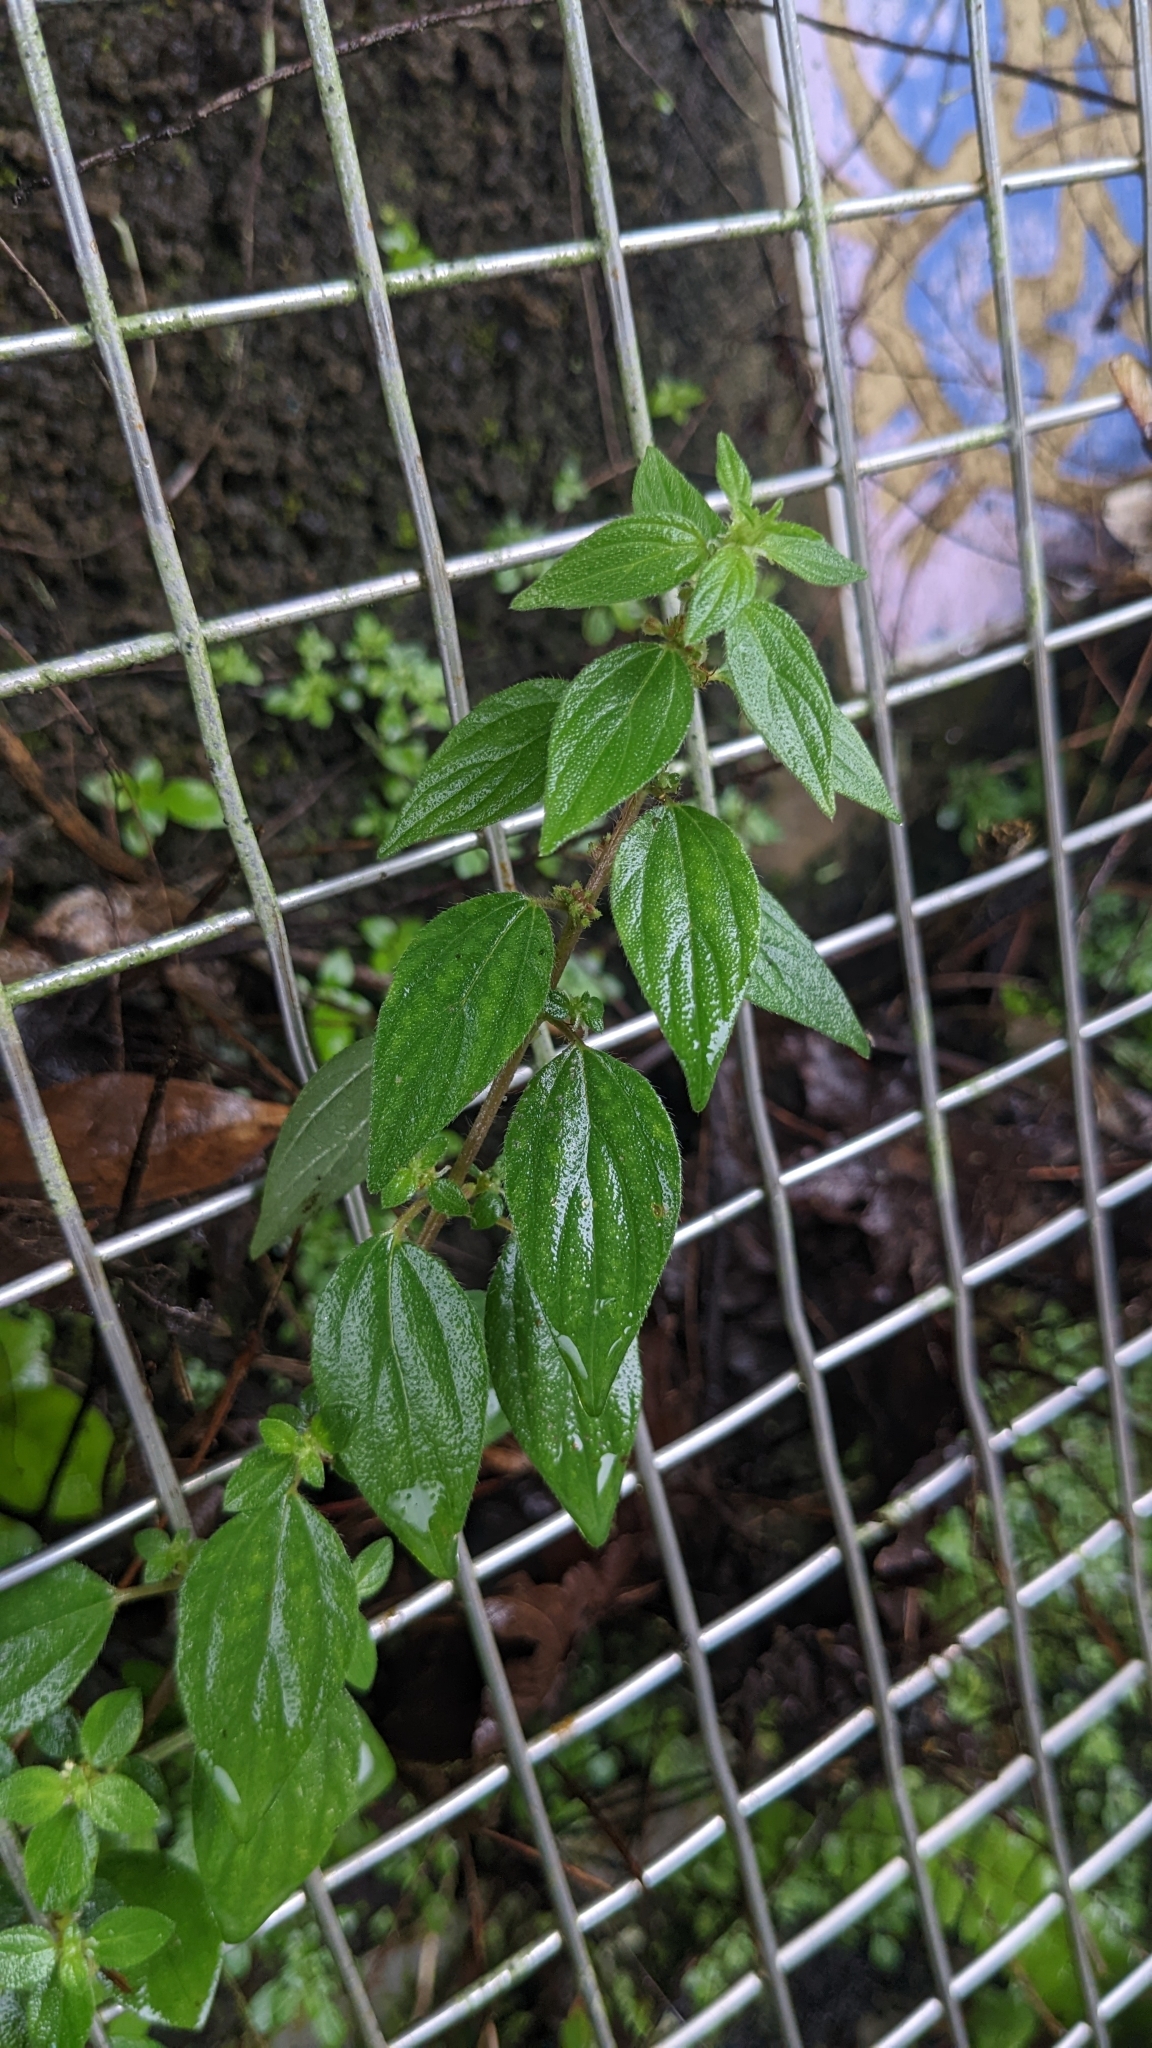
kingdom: Plantae
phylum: Tracheophyta
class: Magnoliopsida
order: Rosales
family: Urticaceae
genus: Pouzolzia
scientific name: Pouzolzia zeylanica
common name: Graceful pouzolzsbush
